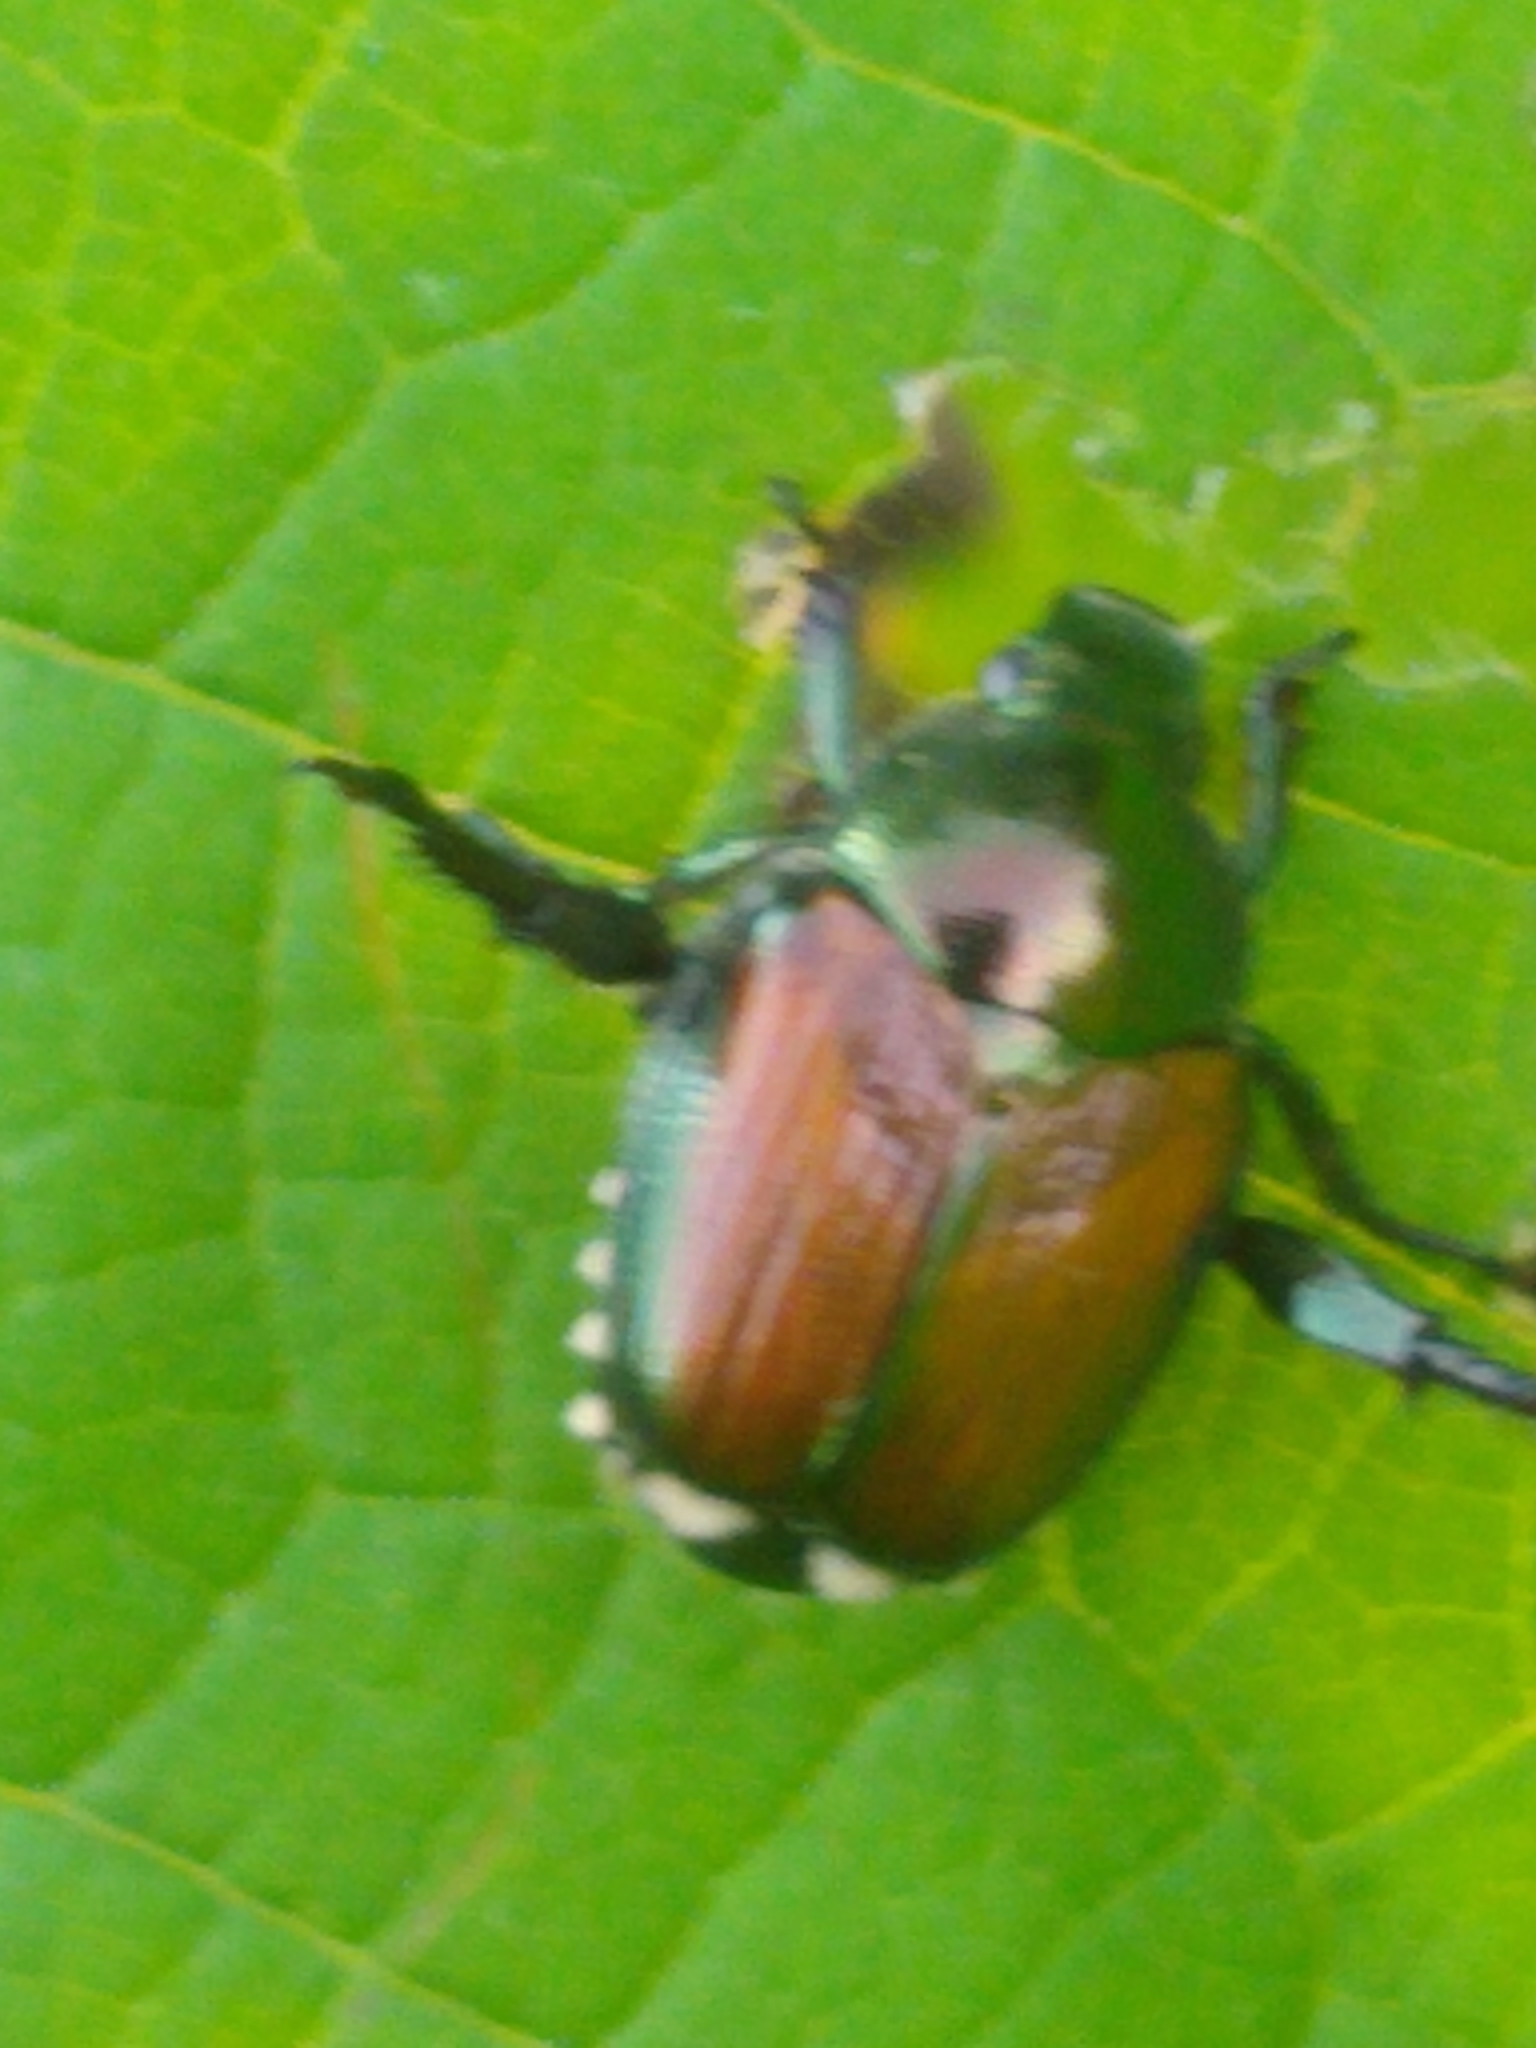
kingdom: Animalia
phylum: Arthropoda
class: Insecta
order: Coleoptera
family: Scarabaeidae
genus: Popillia
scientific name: Popillia japonica
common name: Japanese beetle
